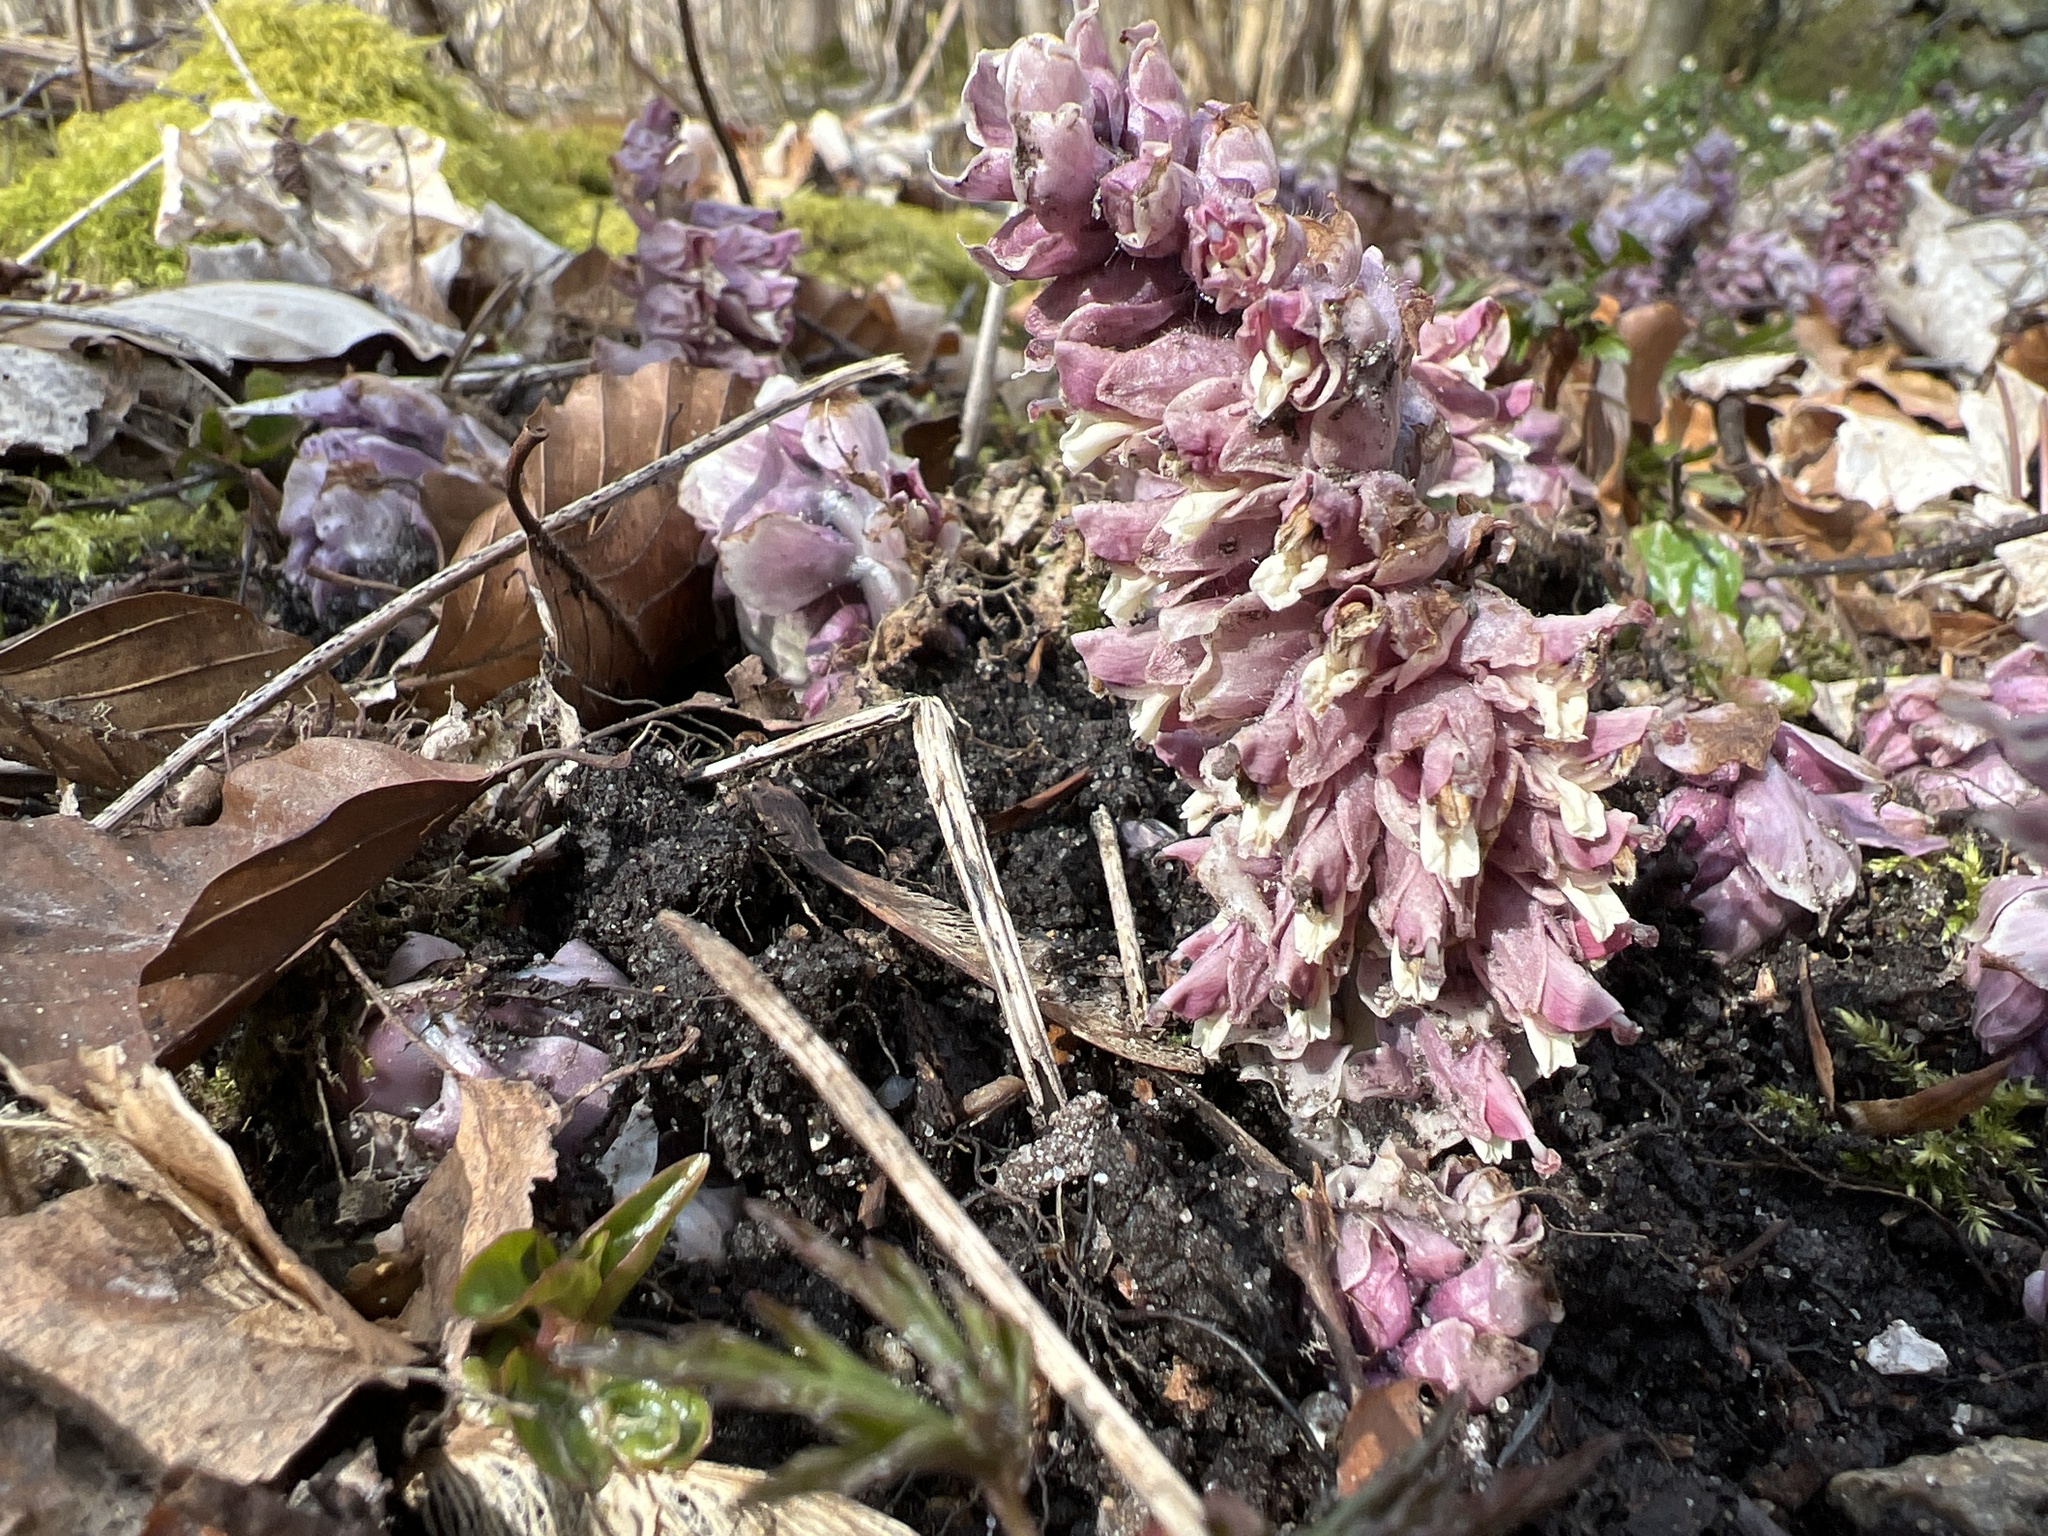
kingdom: Plantae
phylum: Tracheophyta
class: Magnoliopsida
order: Lamiales
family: Orobanchaceae
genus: Lathraea
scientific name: Lathraea squamaria
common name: Toothwort
